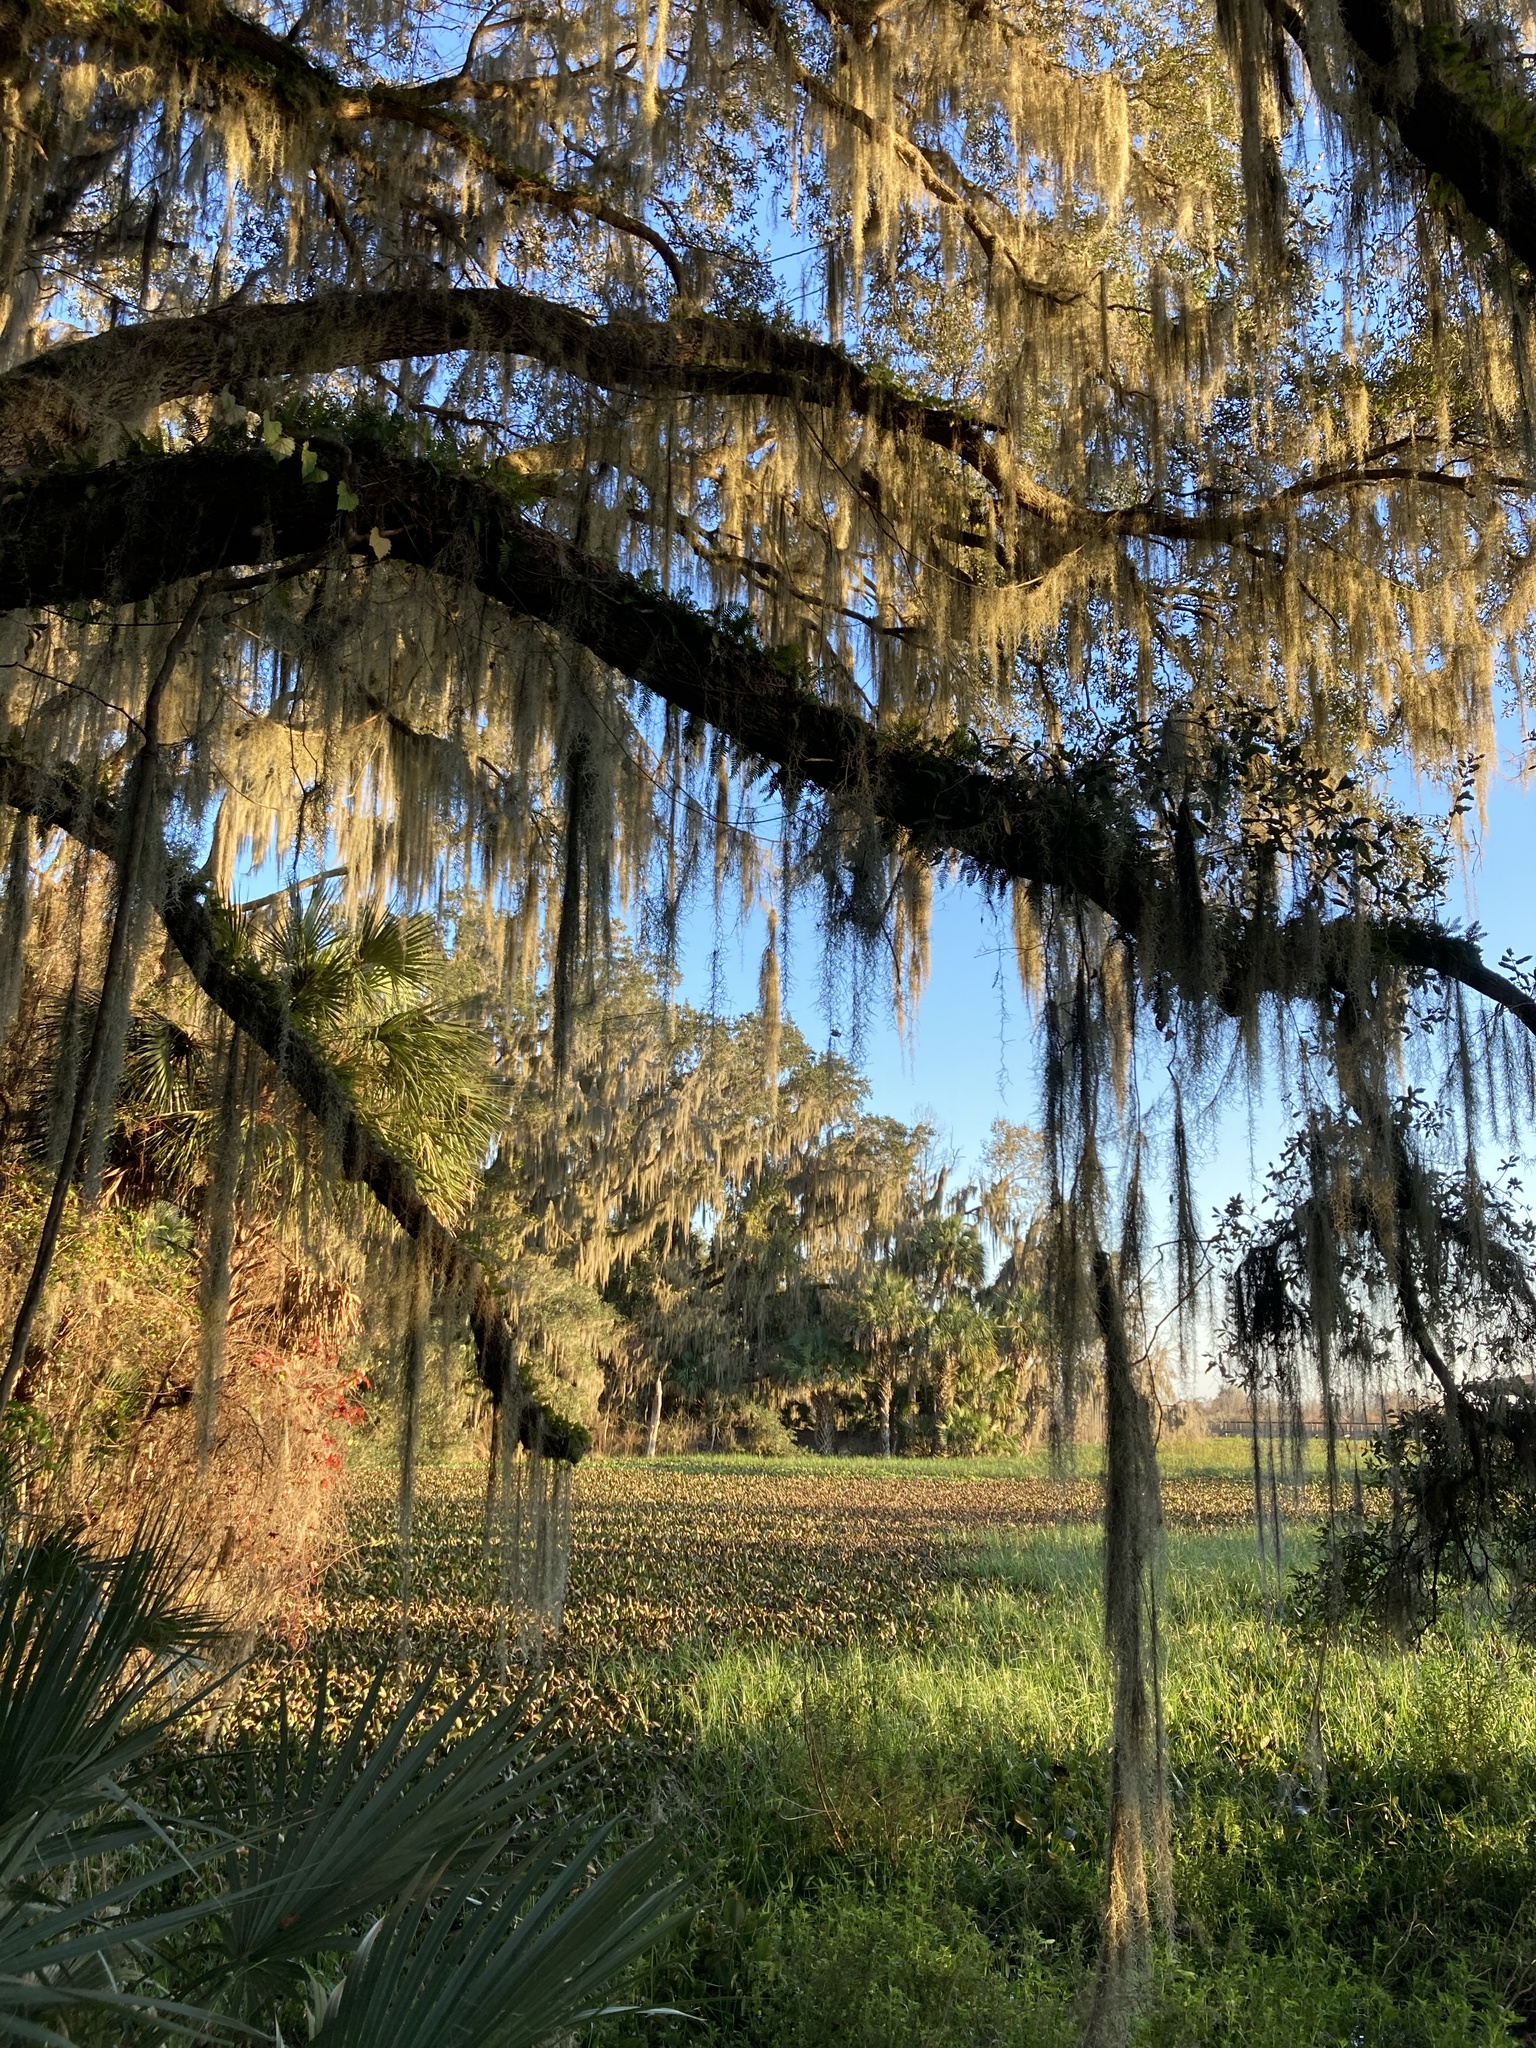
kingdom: Plantae
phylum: Tracheophyta
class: Liliopsida
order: Poales
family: Bromeliaceae
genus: Tillandsia
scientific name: Tillandsia usneoides
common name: Spanish moss
